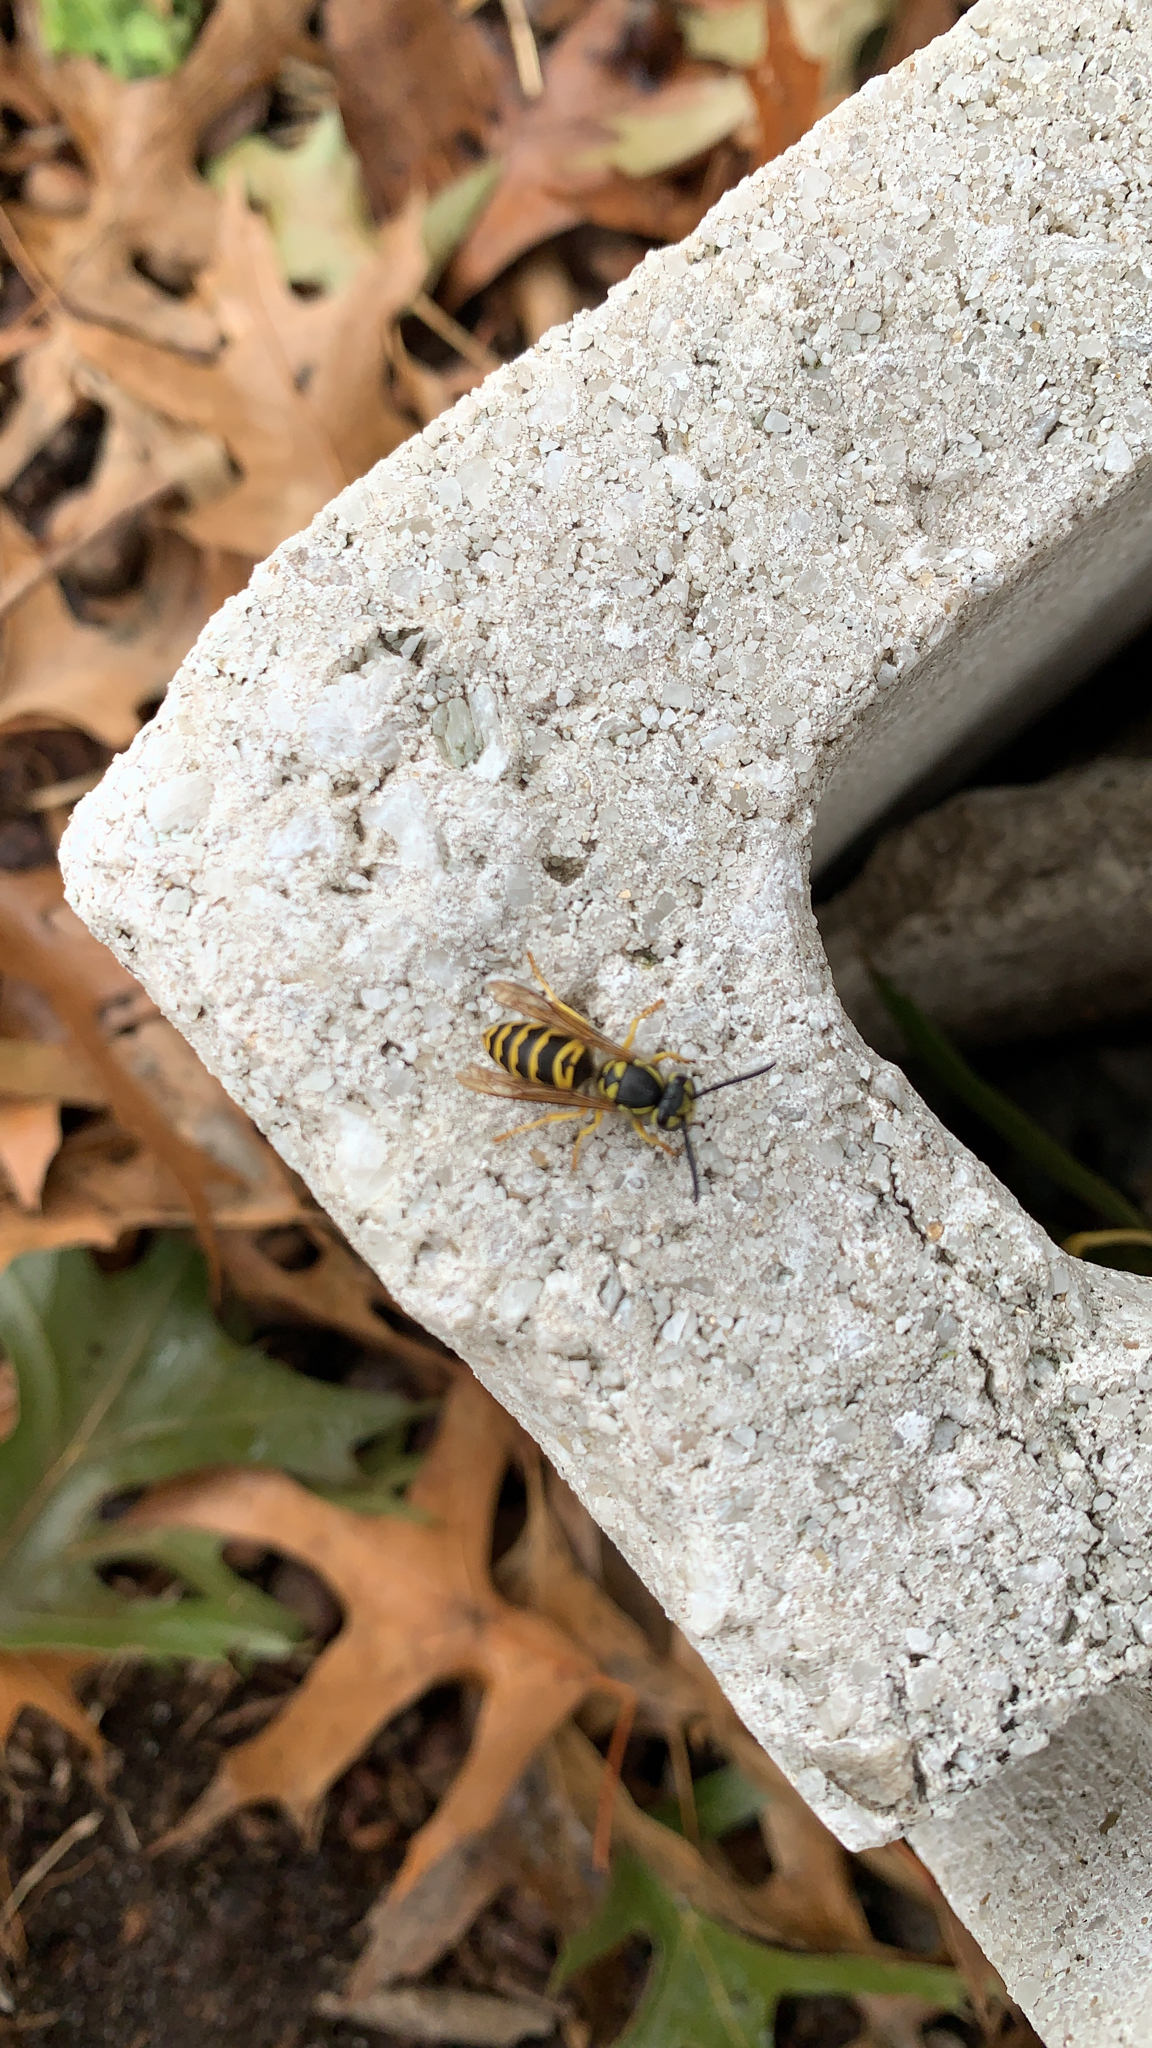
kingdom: Animalia
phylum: Arthropoda
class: Insecta
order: Hymenoptera
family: Vespidae
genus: Vespula
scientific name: Vespula maculifrons
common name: Eastern yellowjacket
